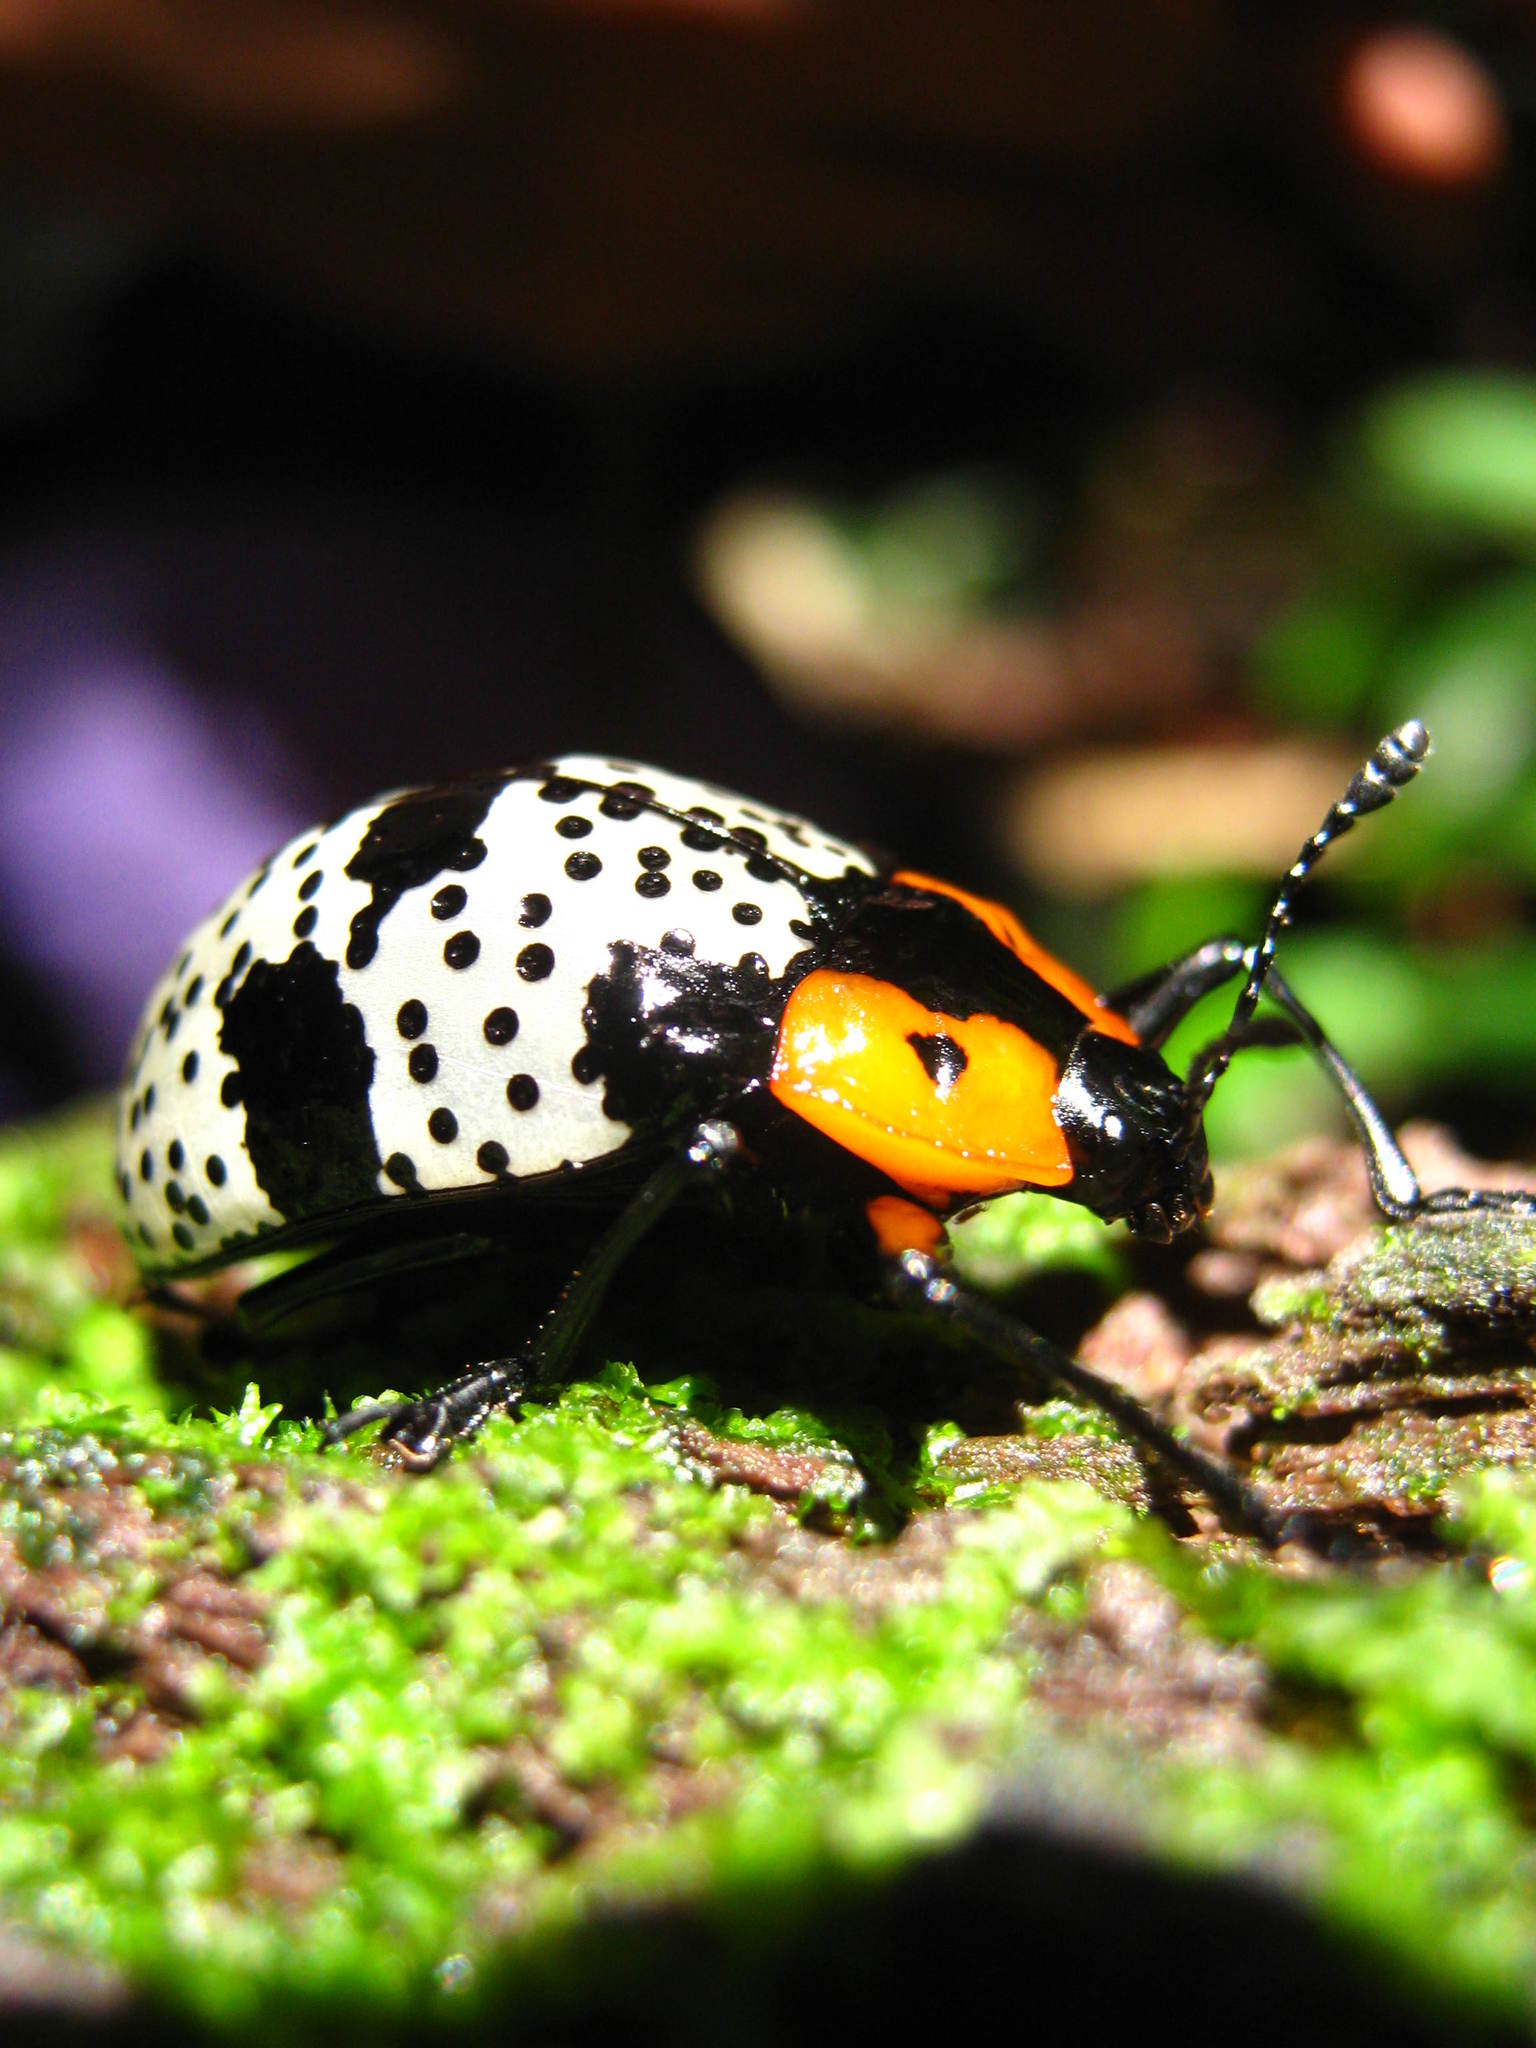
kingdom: Animalia
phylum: Arthropoda
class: Insecta
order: Coleoptera
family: Erotylidae
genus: Gibbifer
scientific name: Gibbifer
